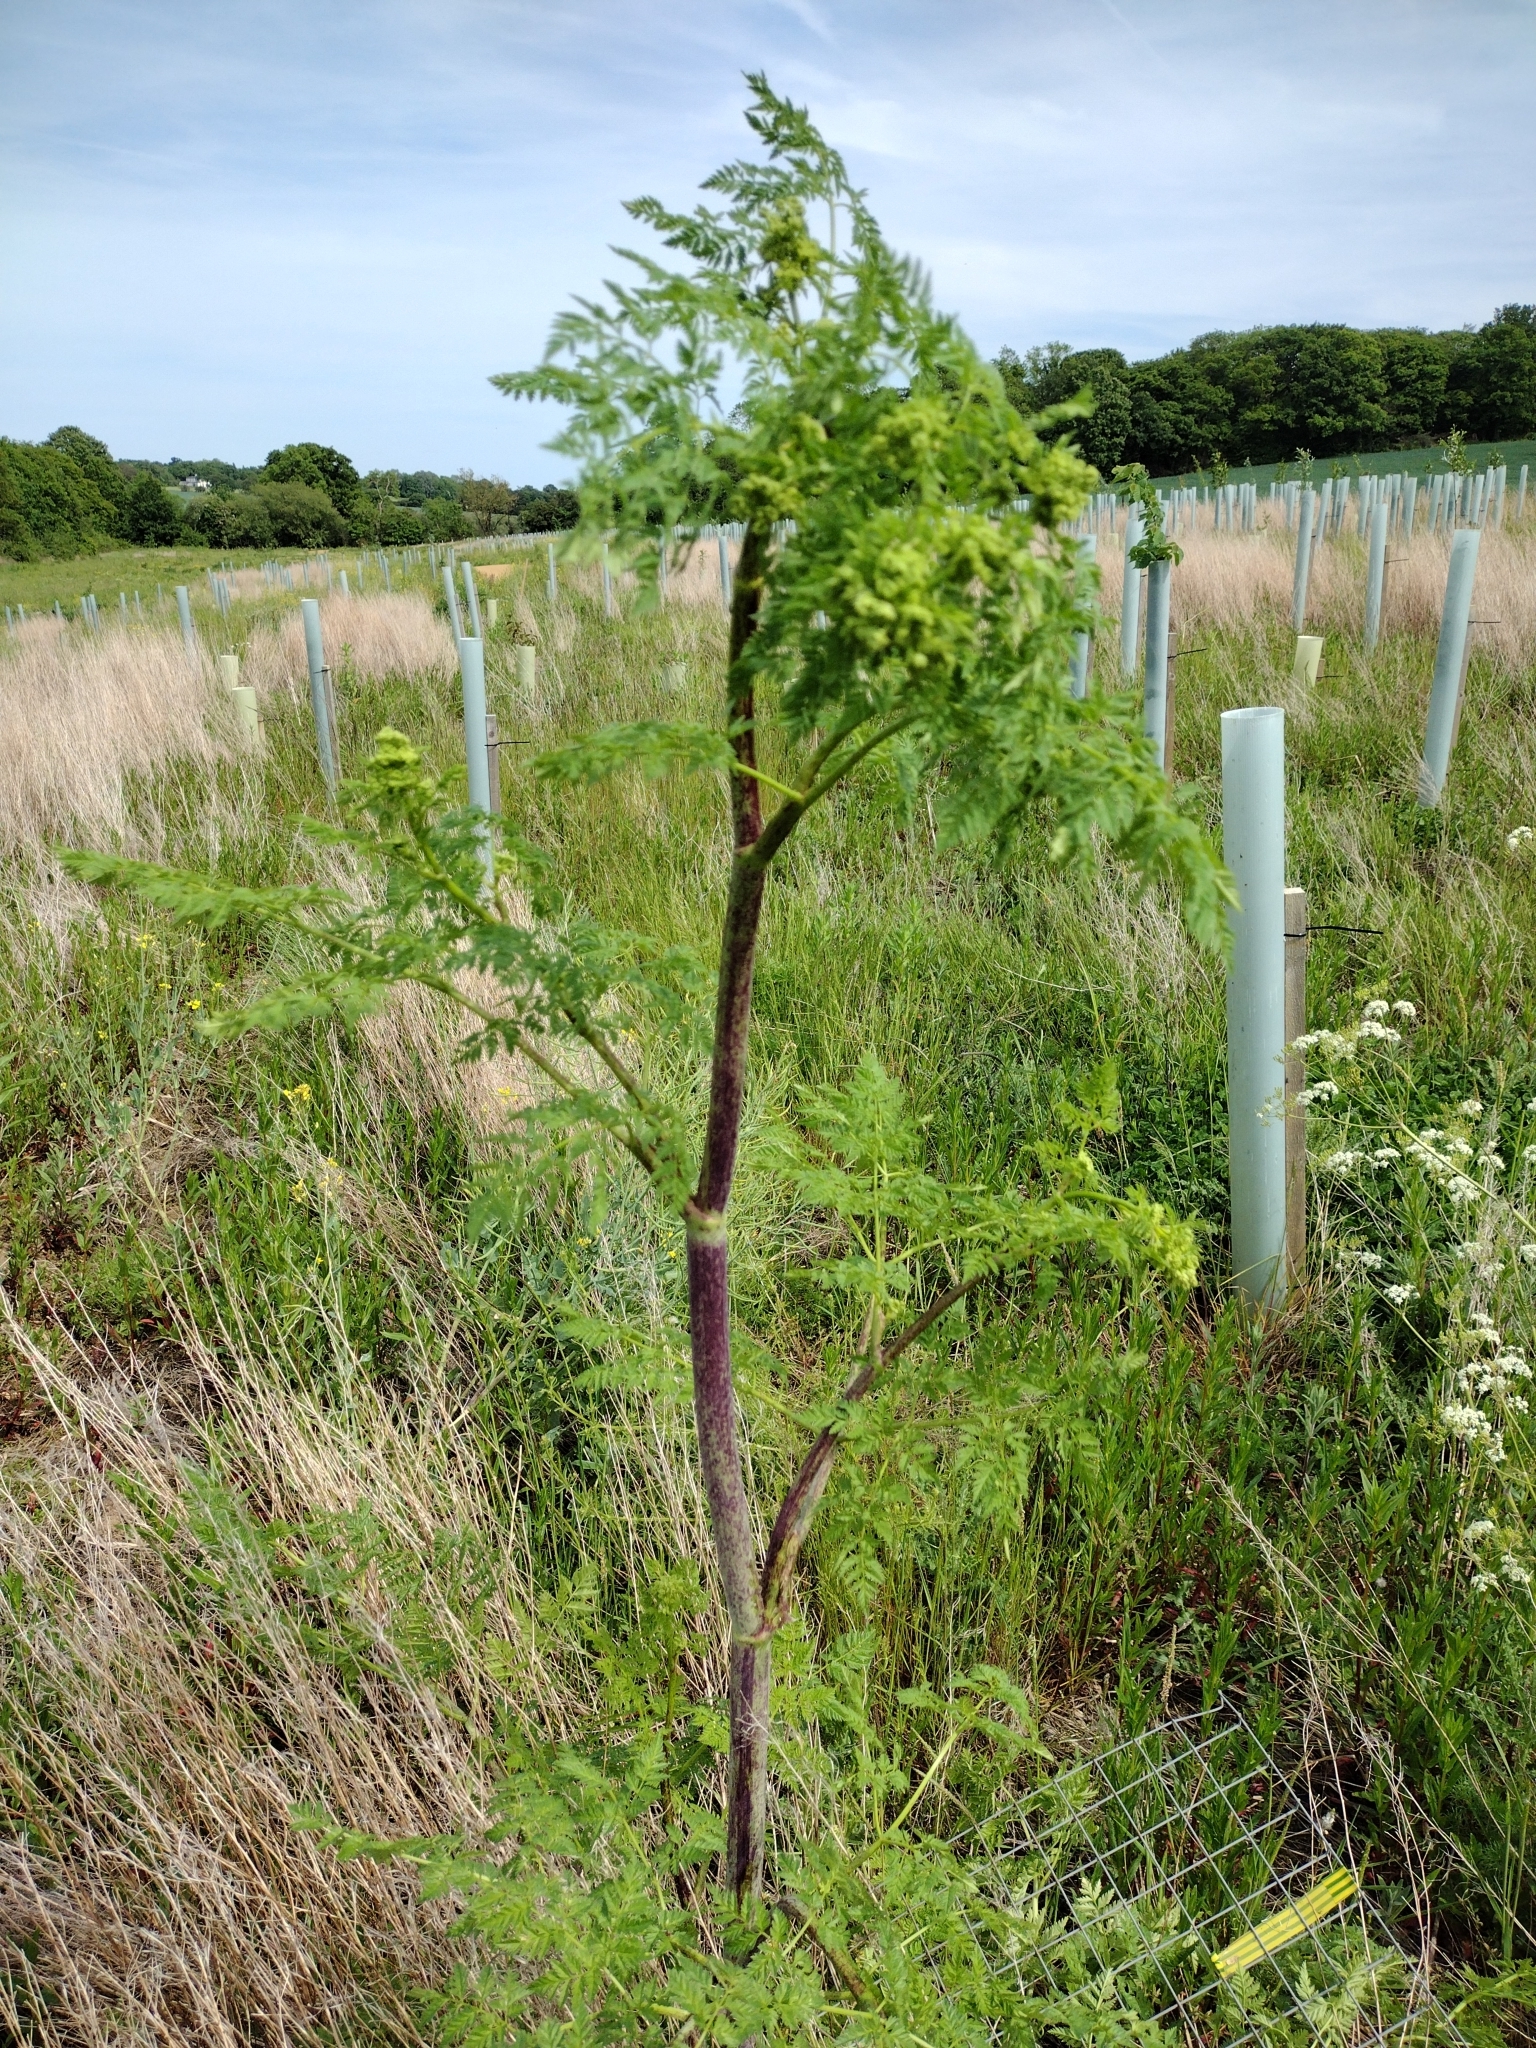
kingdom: Plantae
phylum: Tracheophyta
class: Magnoliopsida
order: Apiales
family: Apiaceae
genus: Conium
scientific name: Conium maculatum
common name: Hemlock
